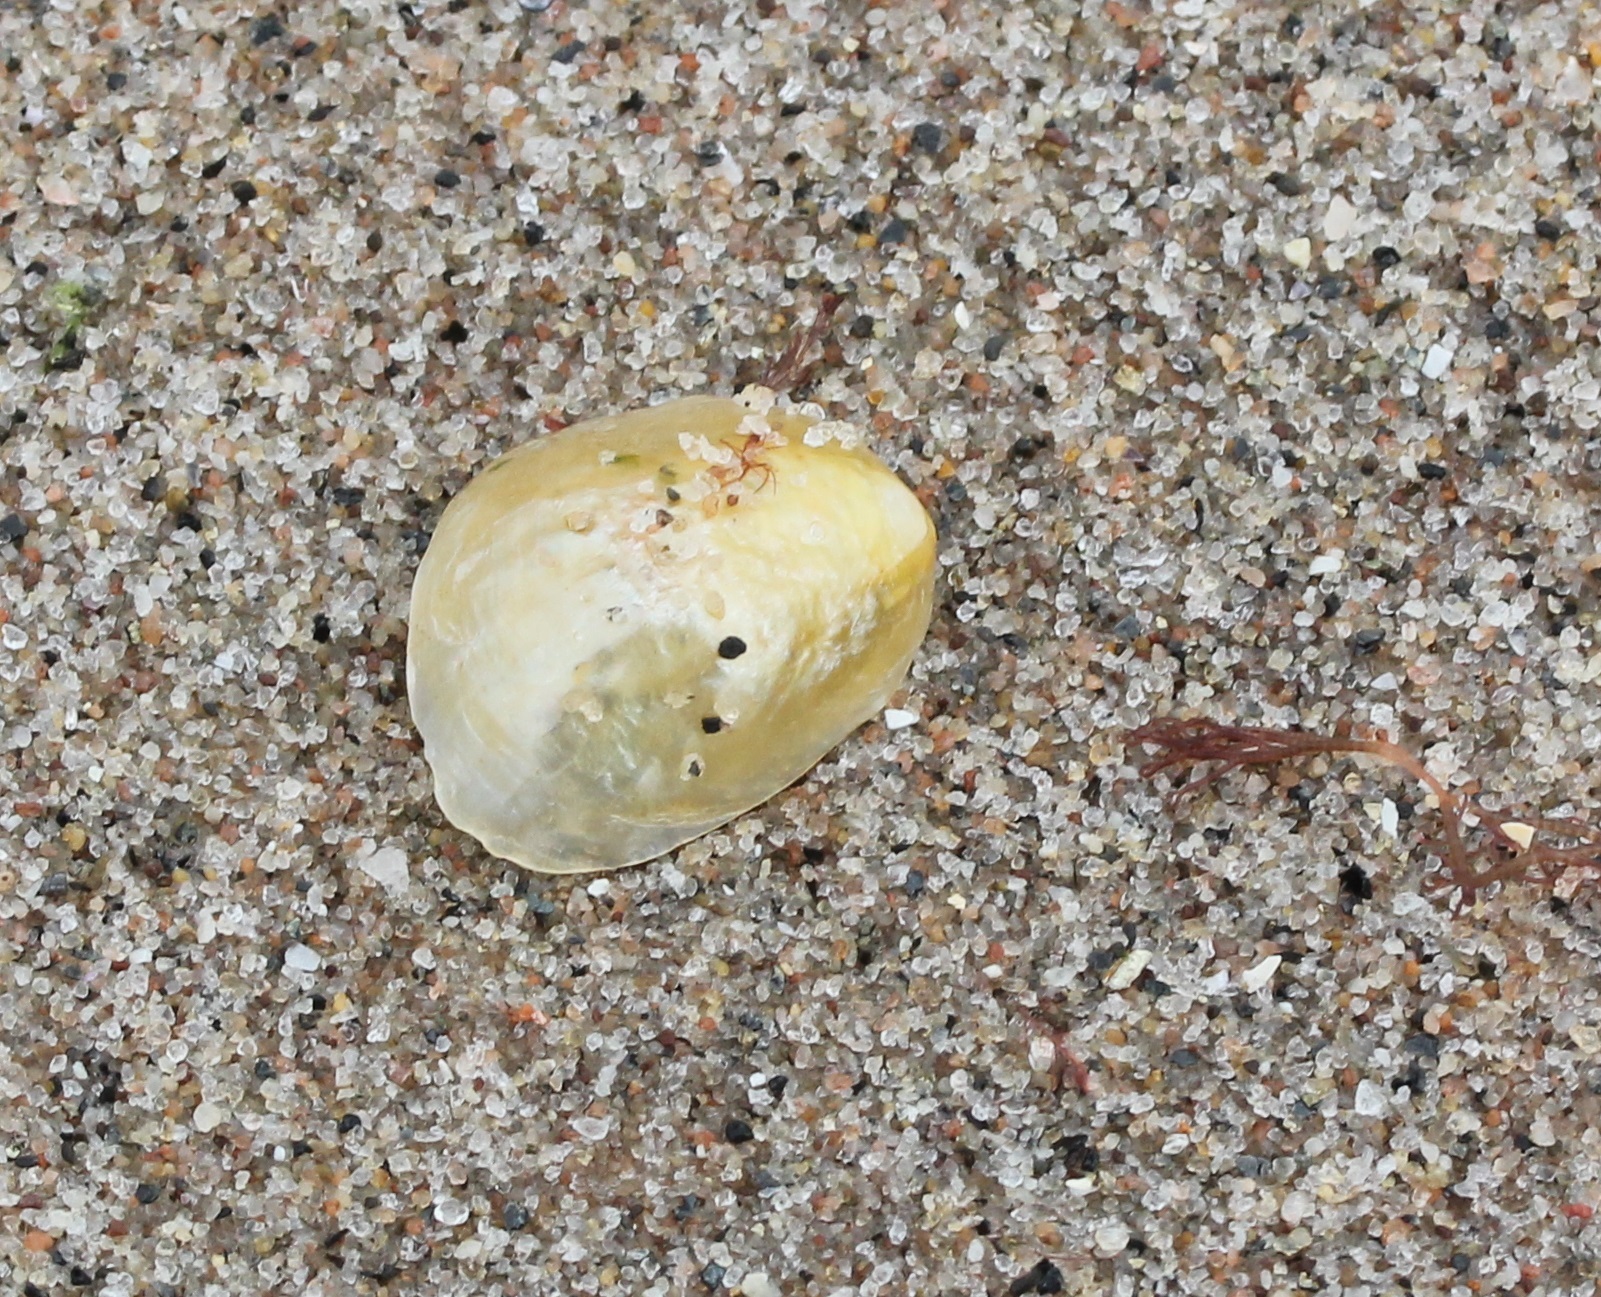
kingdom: Animalia
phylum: Mollusca
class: Bivalvia
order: Pectinida
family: Anomiidae
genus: Anomia
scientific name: Anomia simplex
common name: Common jingle shell
